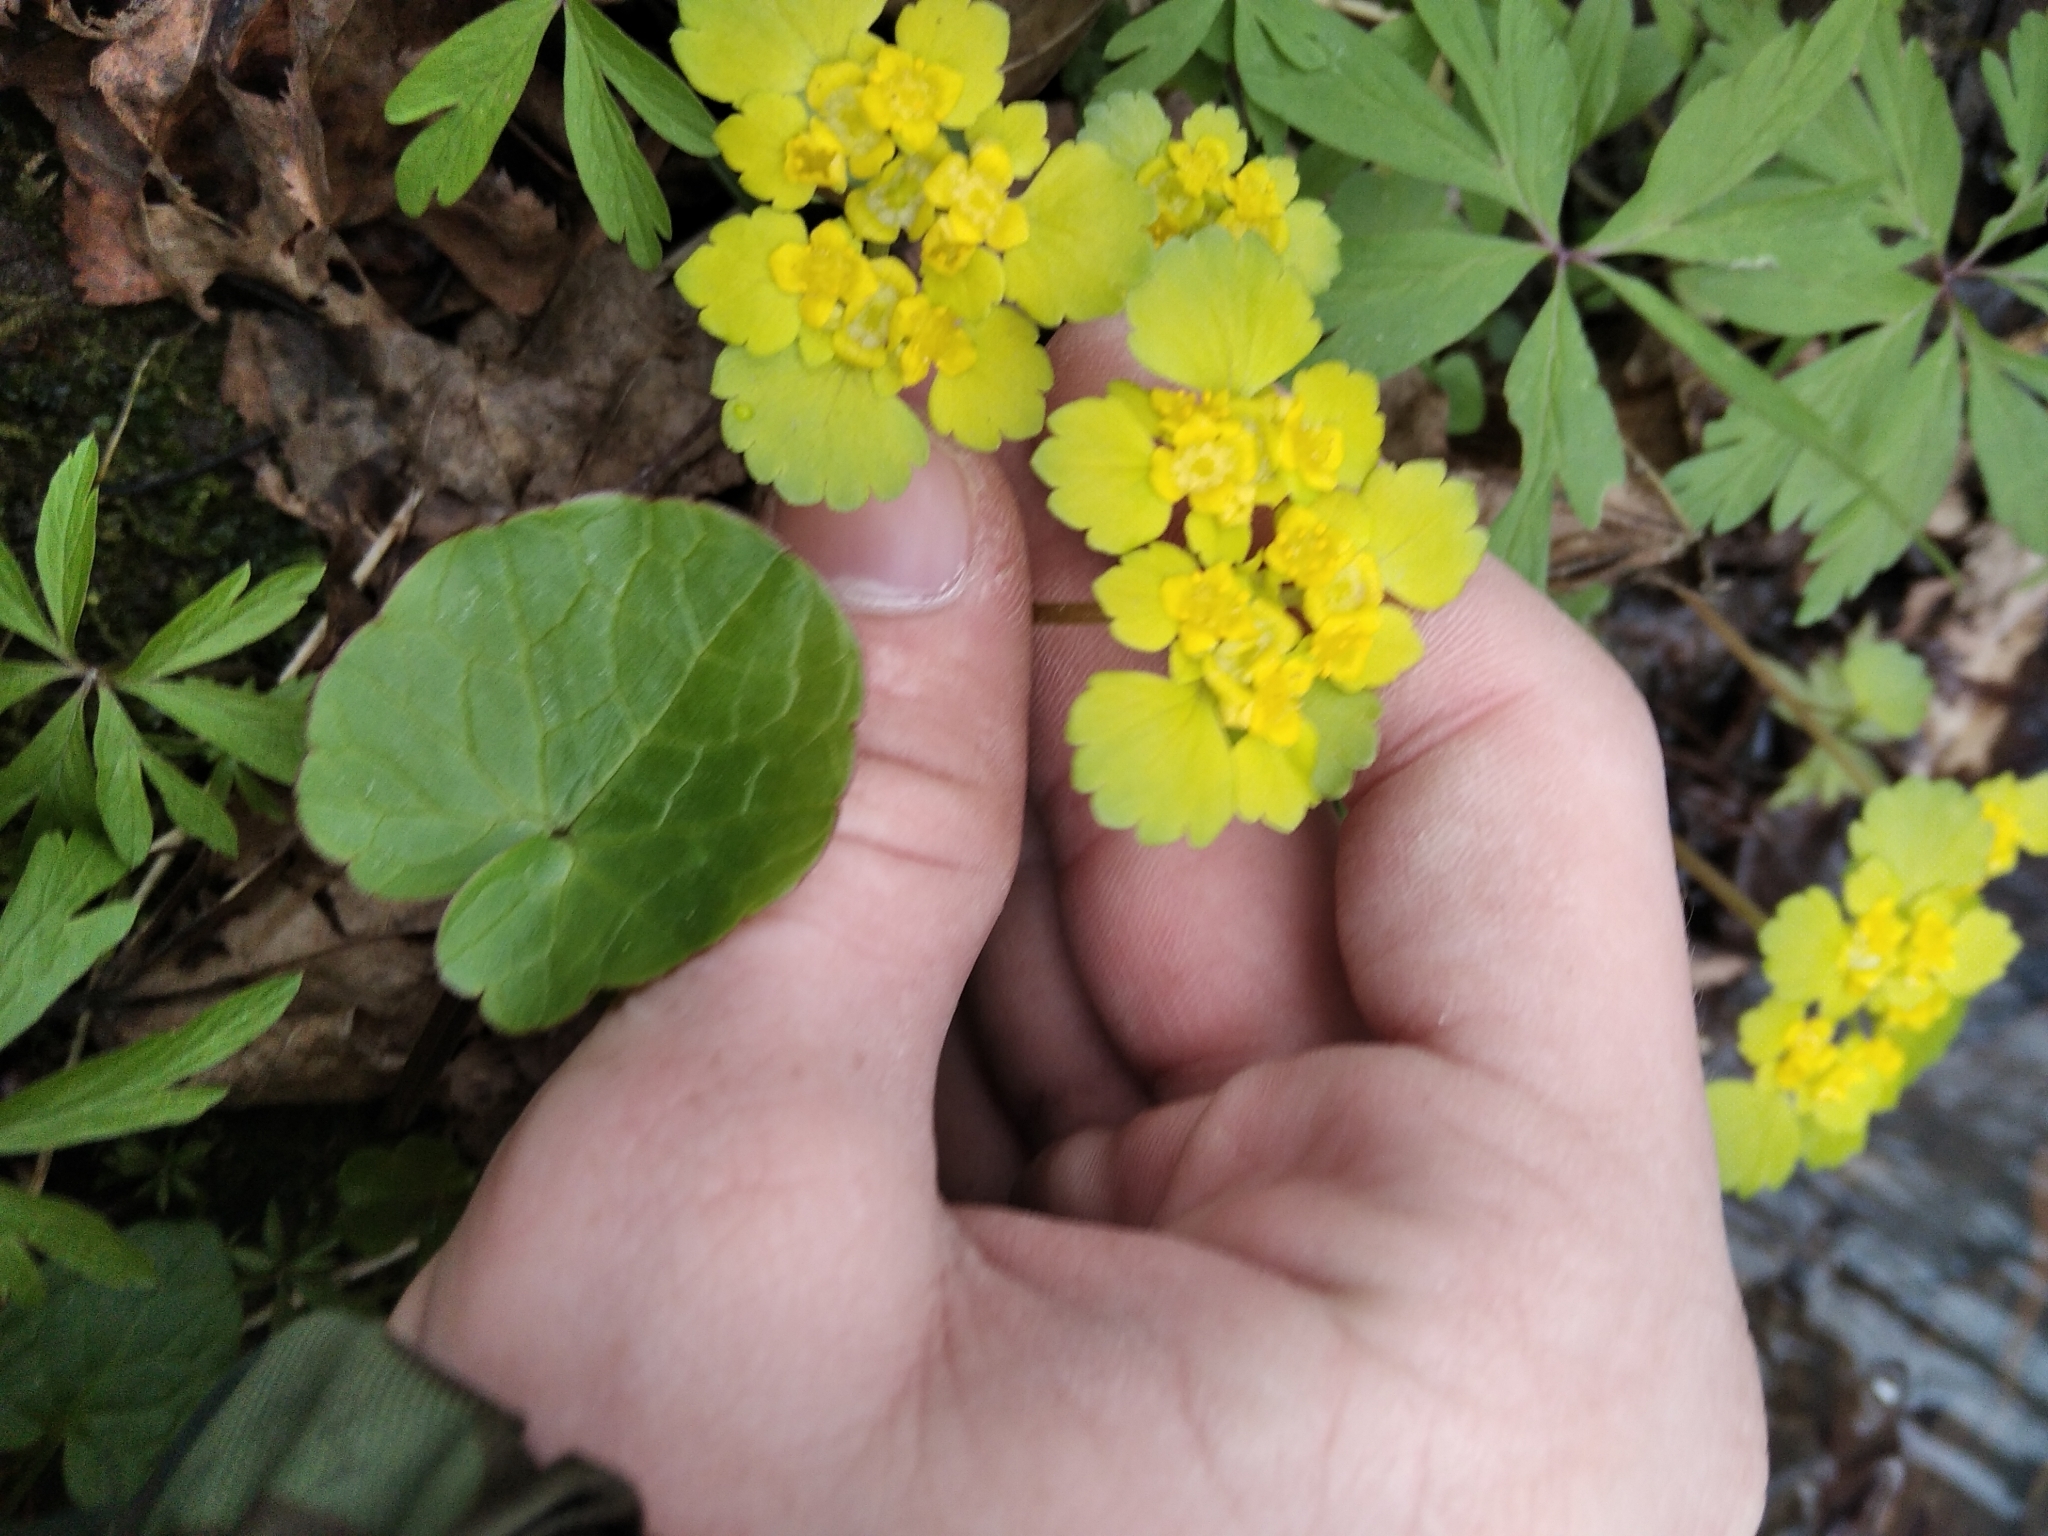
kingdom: Plantae
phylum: Tracheophyta
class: Magnoliopsida
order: Saxifragales
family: Saxifragaceae
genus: Chrysosplenium
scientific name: Chrysosplenium alternifolium
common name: Alternate-leaved golden-saxifrage
